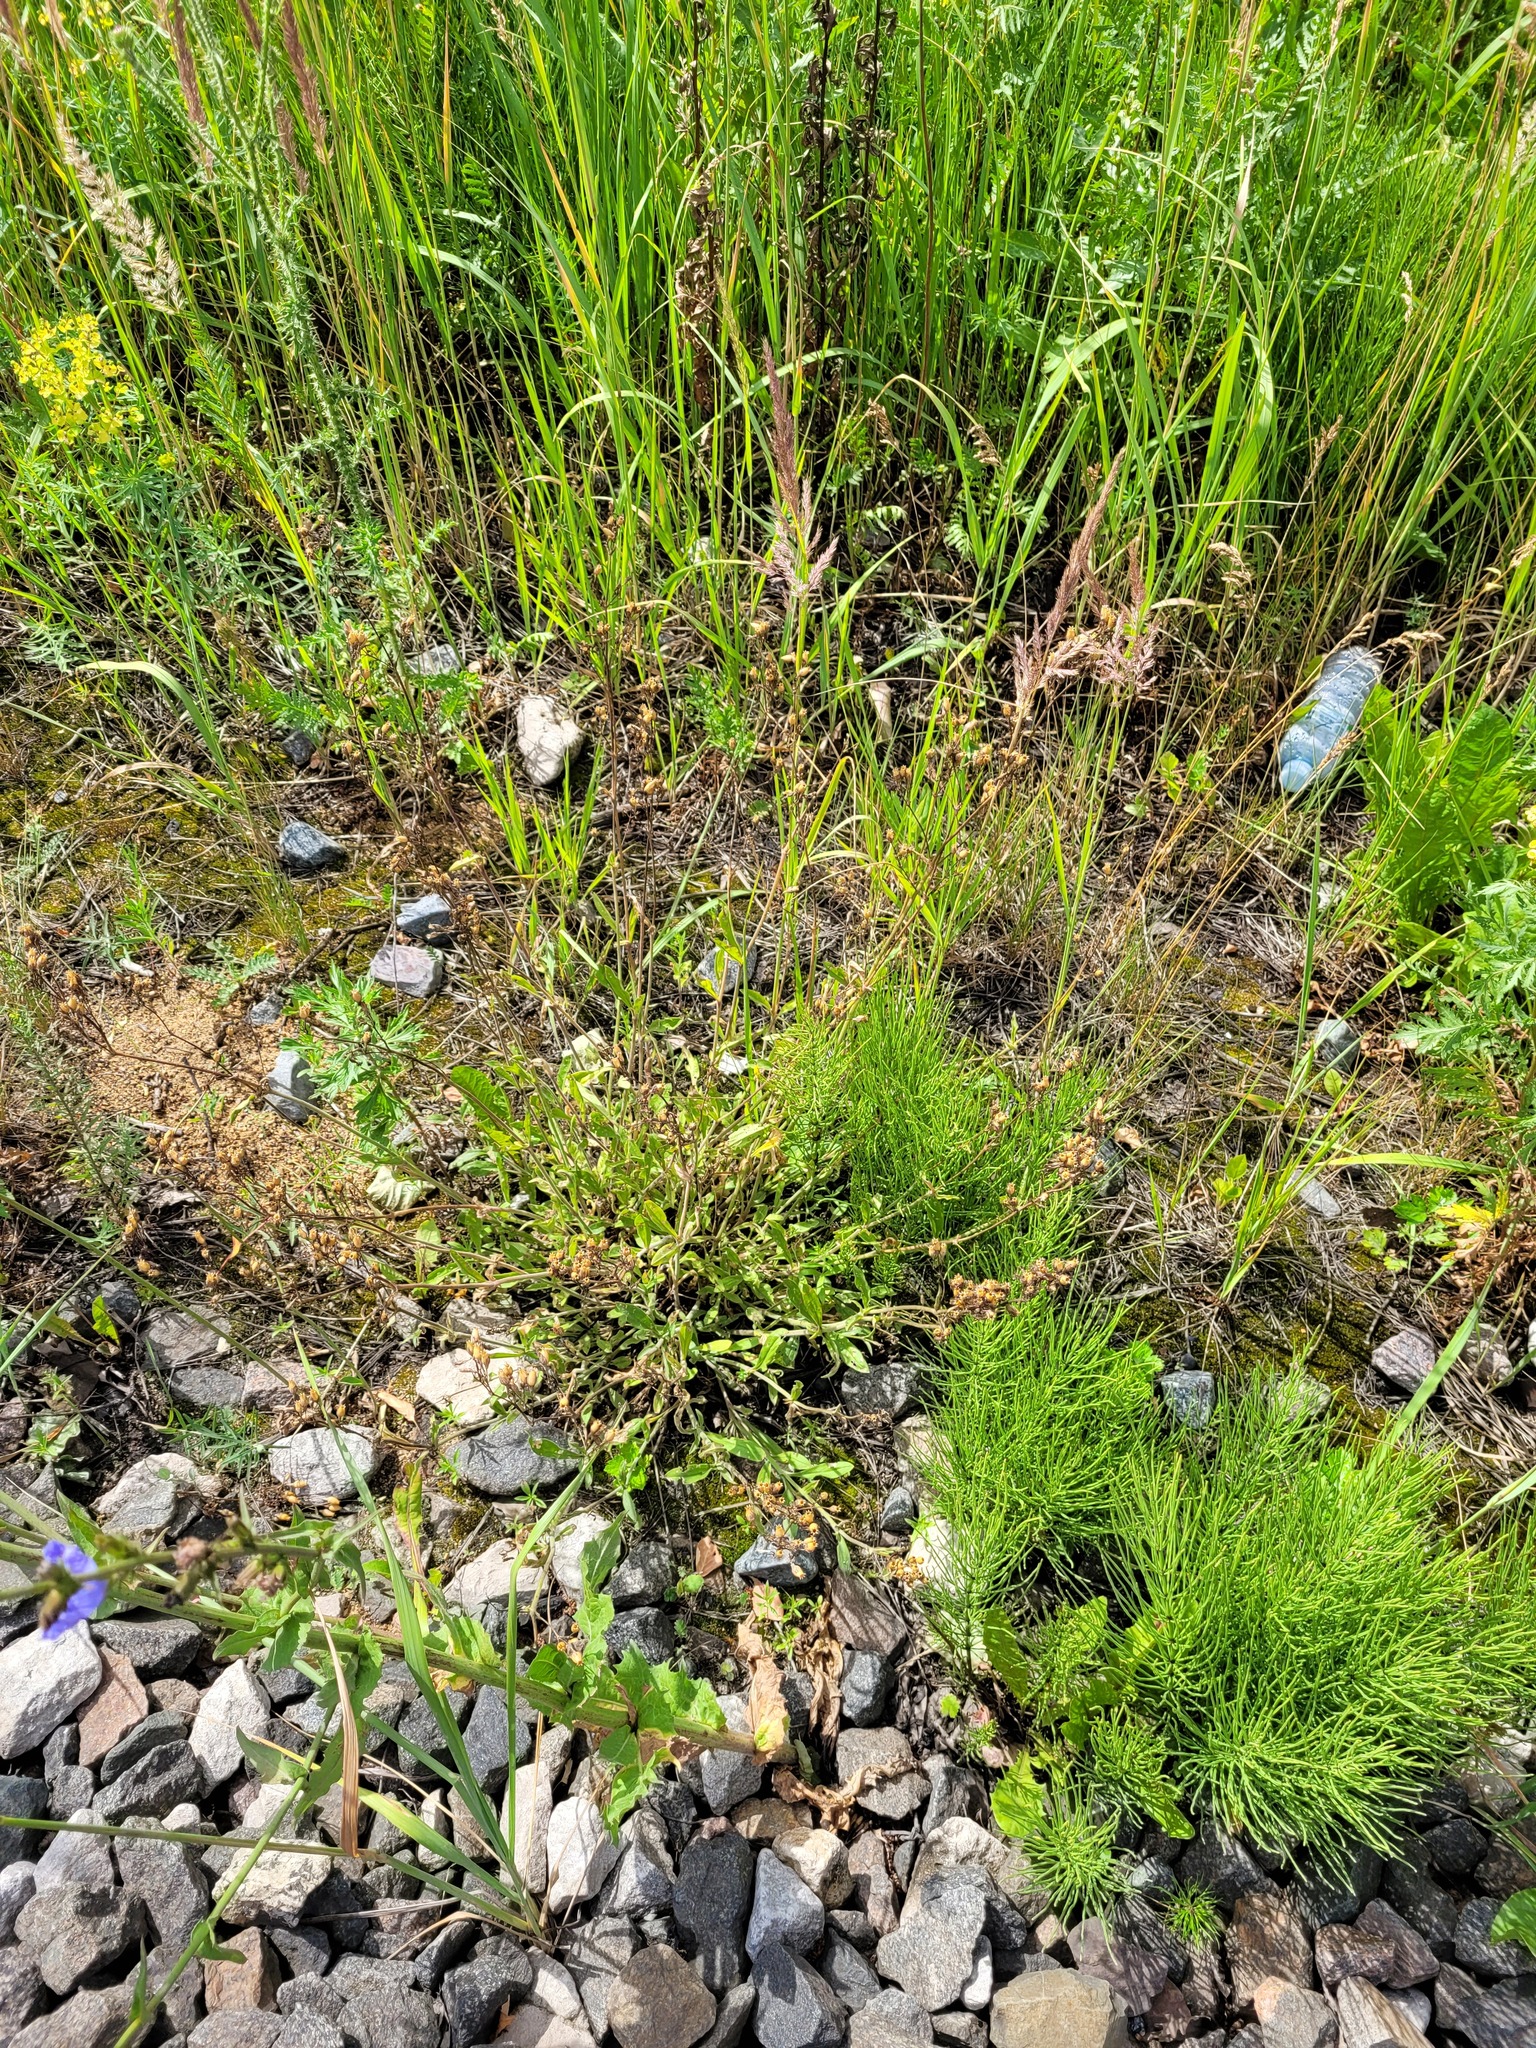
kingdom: Plantae
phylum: Tracheophyta
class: Magnoliopsida
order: Caryophyllales
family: Caryophyllaceae
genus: Silene
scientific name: Silene nutans
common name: Nottingham catchfly
